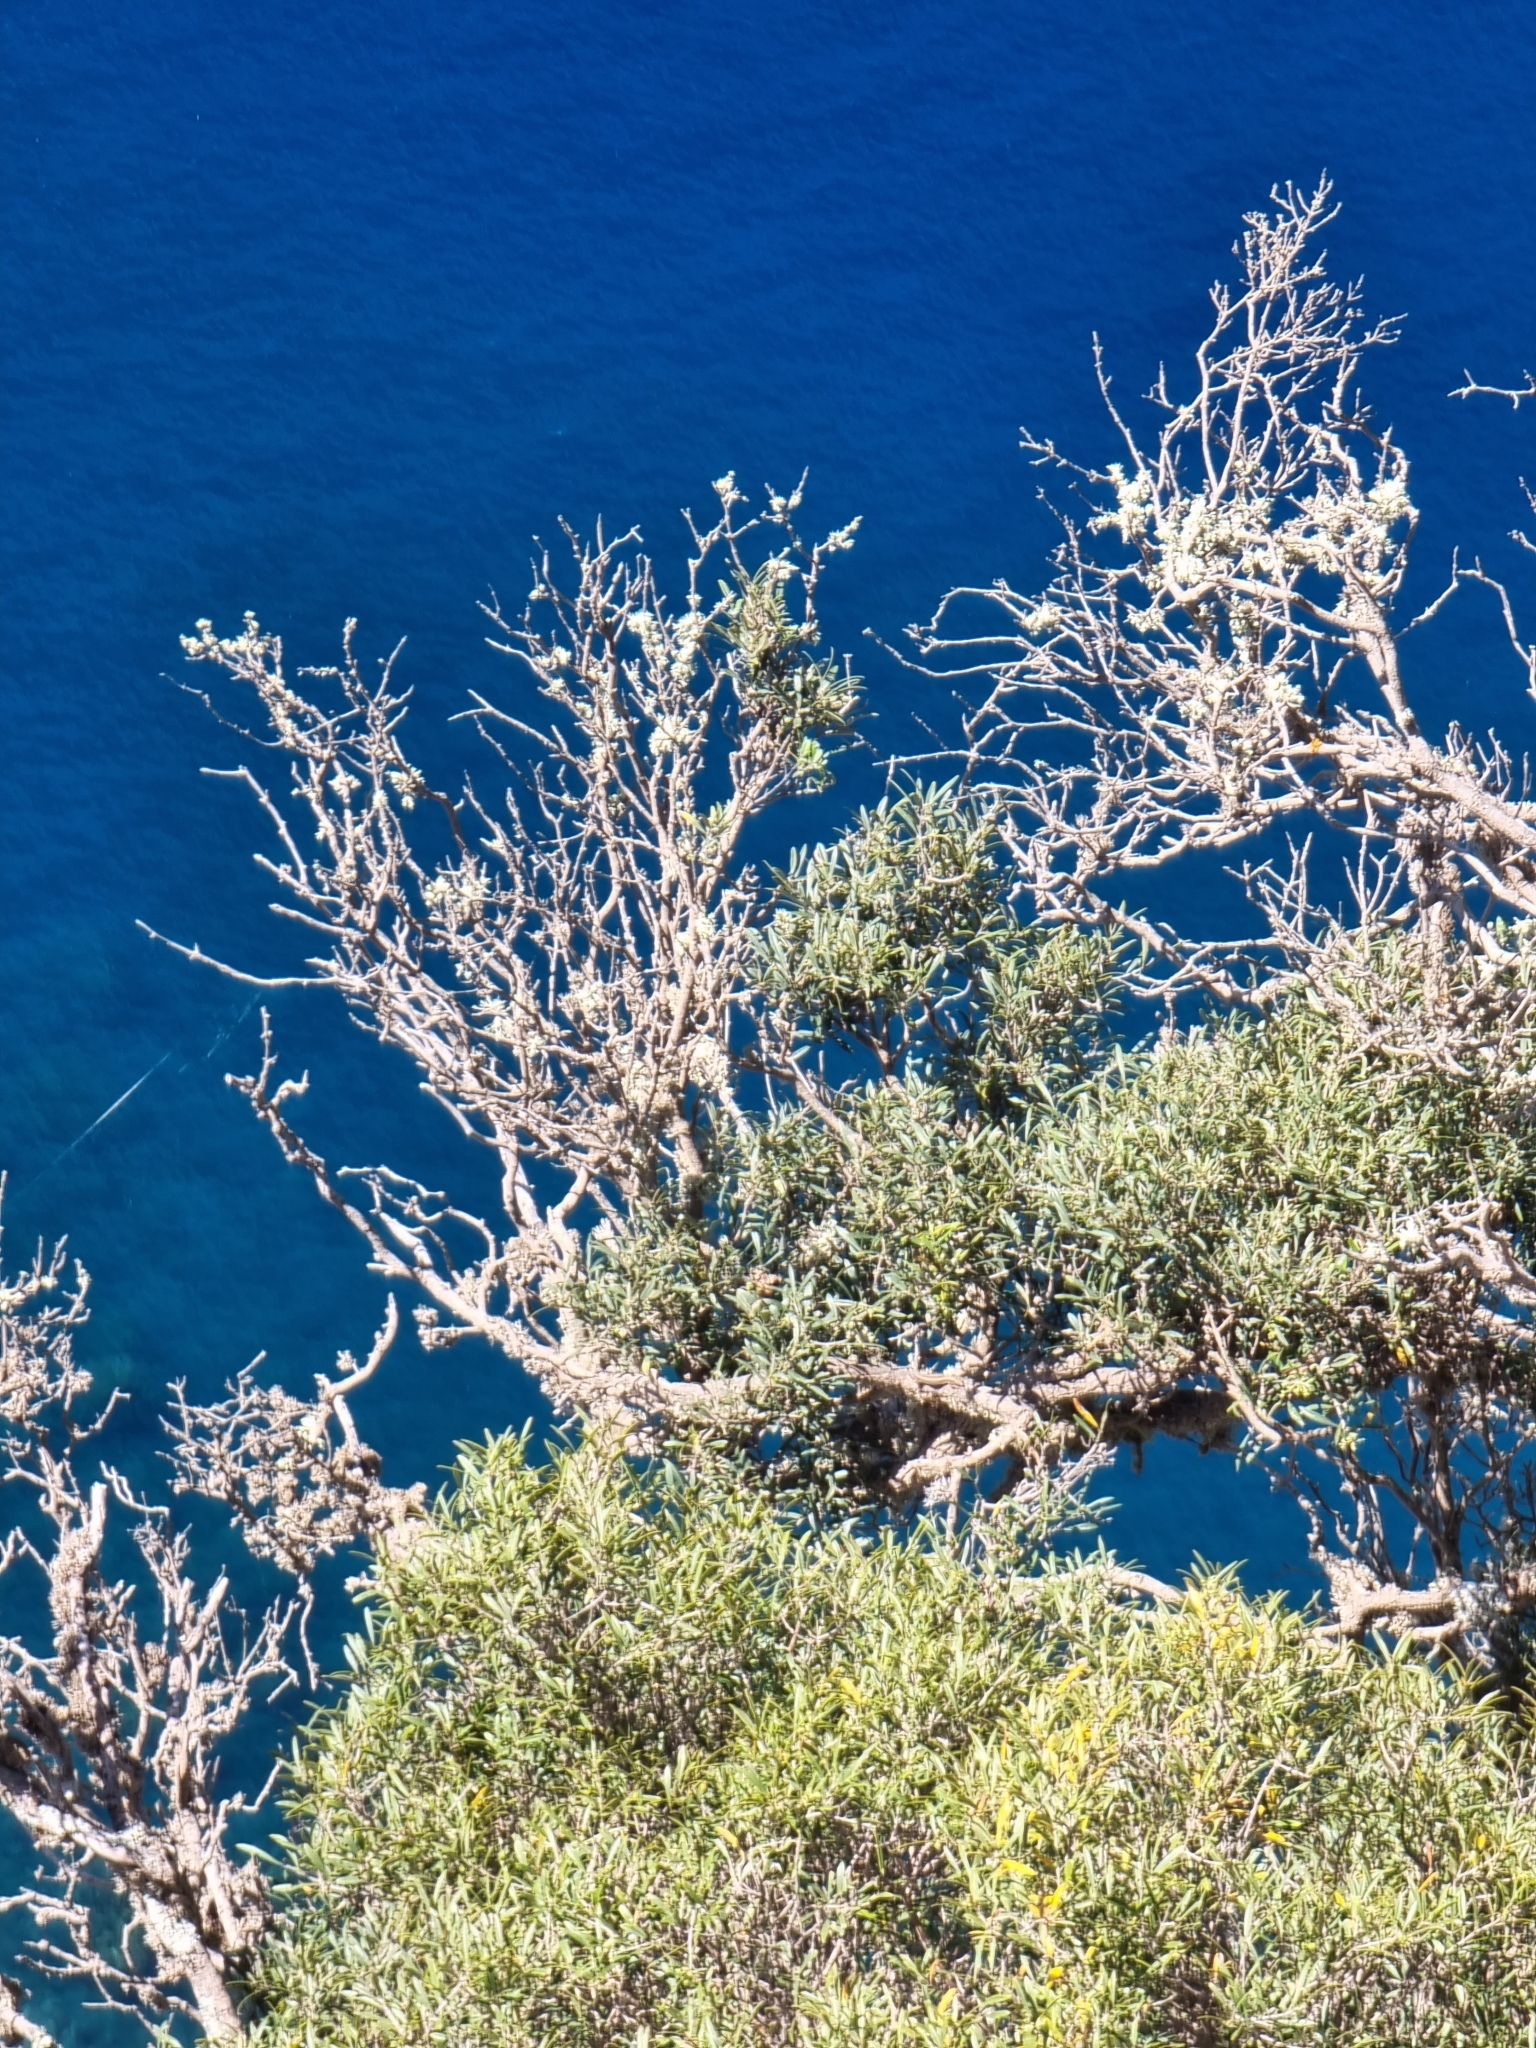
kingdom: Plantae
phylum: Tracheophyta
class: Magnoliopsida
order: Lamiales
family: Oleaceae
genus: Olea
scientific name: Olea europaea
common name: Olive
